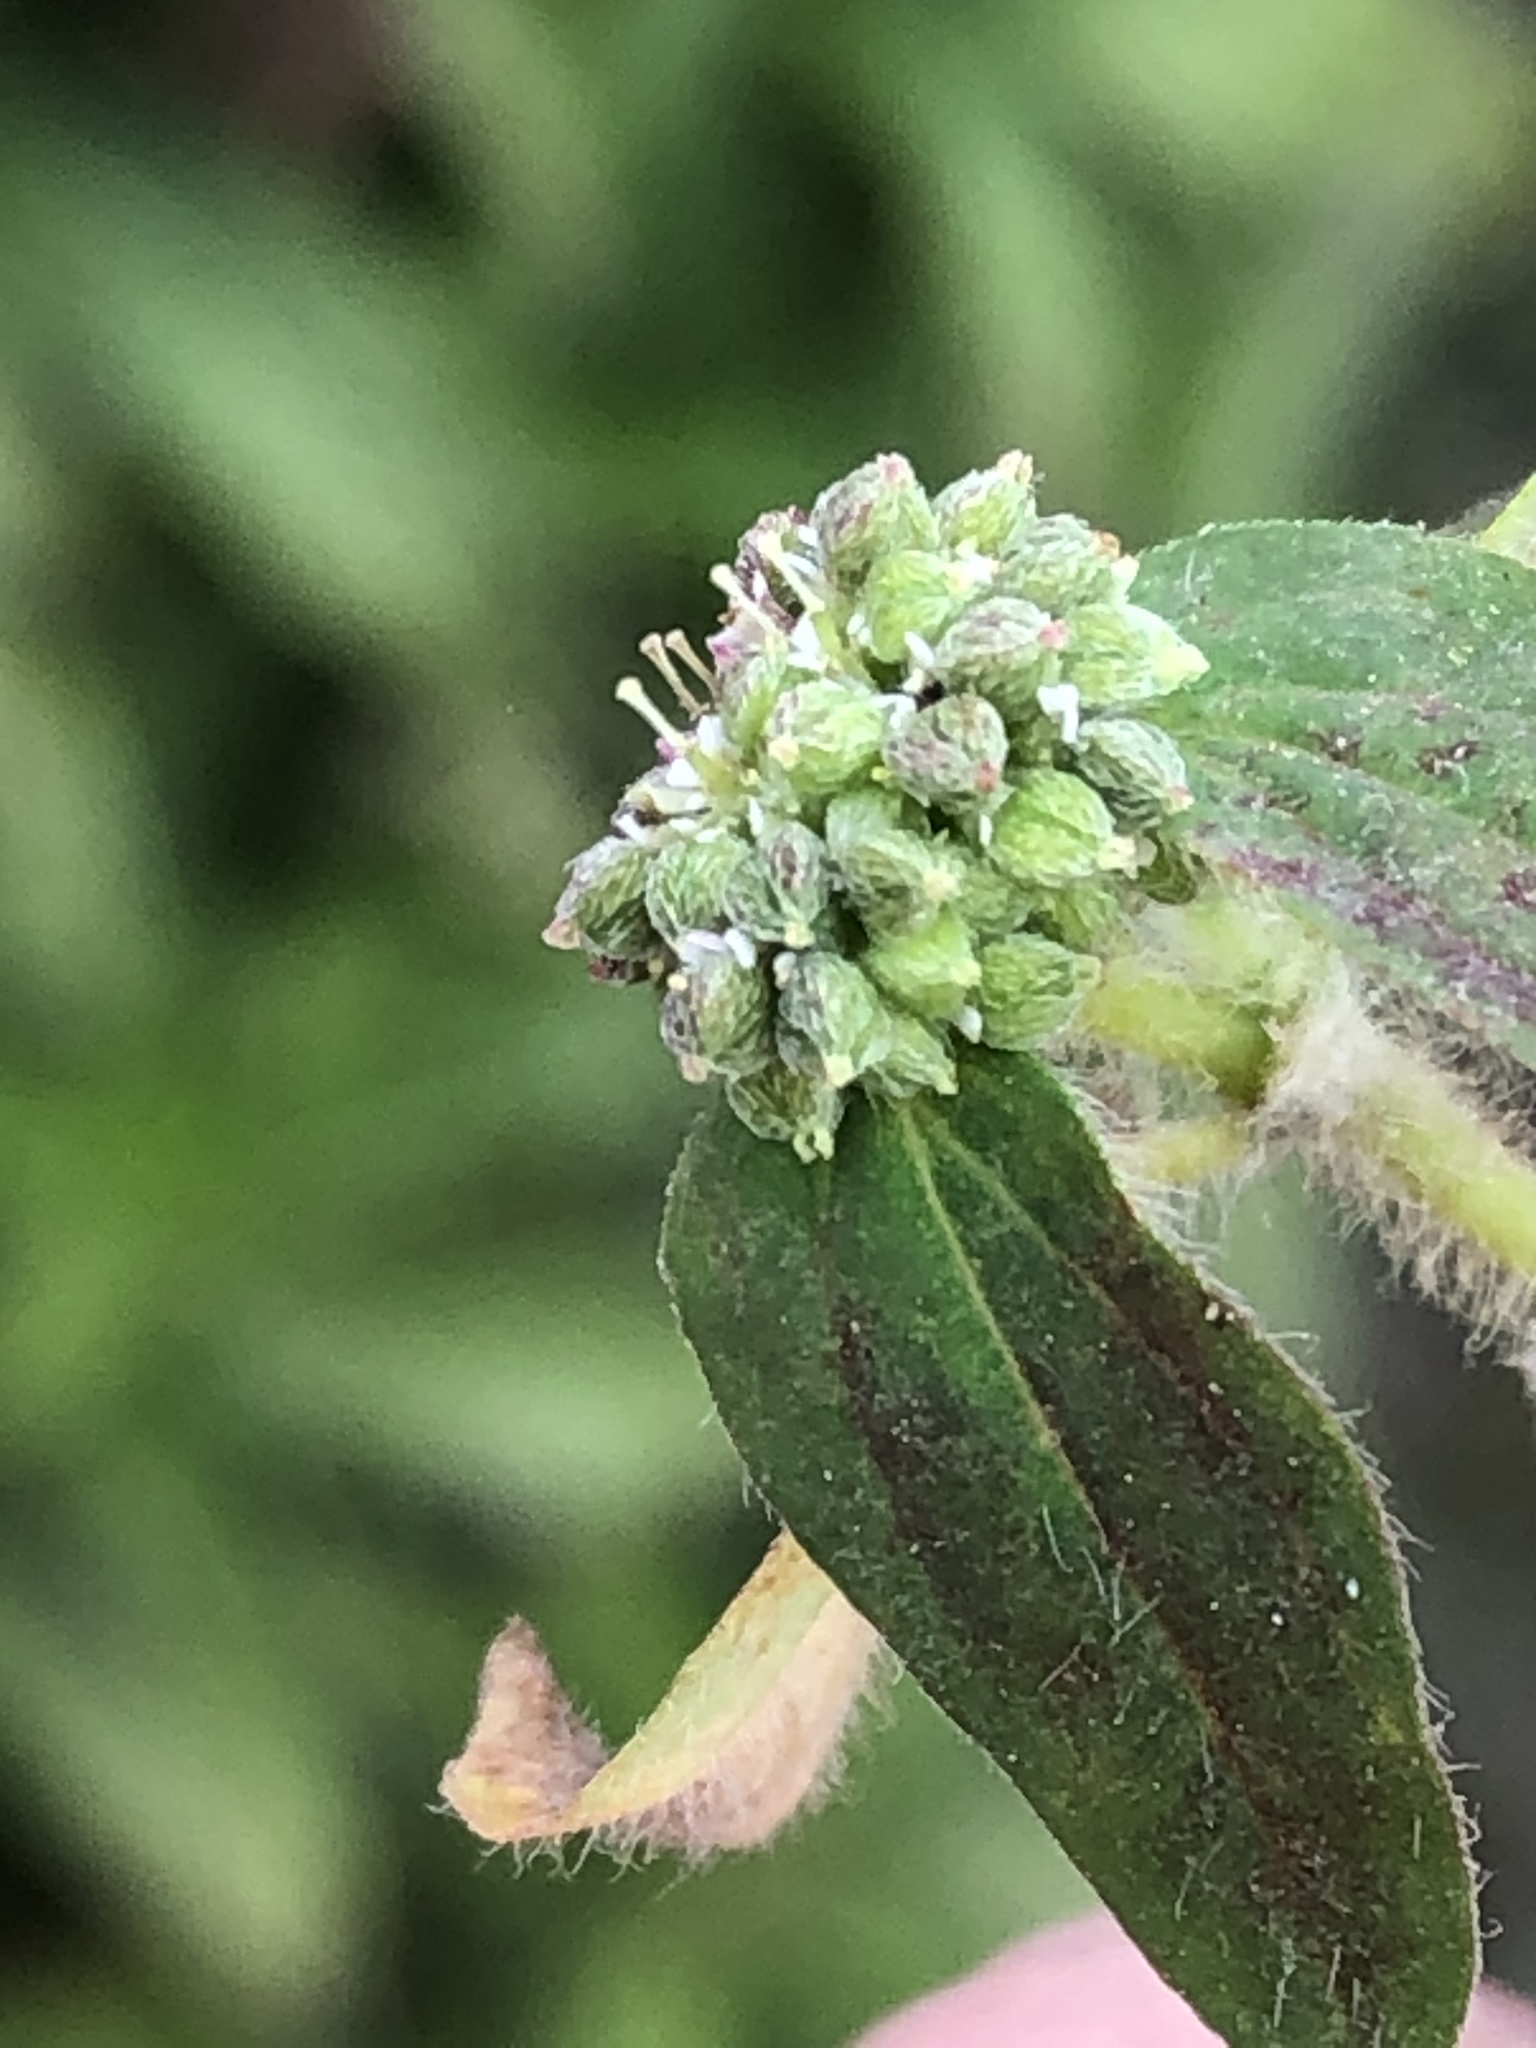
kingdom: Plantae
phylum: Tracheophyta
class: Magnoliopsida
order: Malpighiales
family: Euphorbiaceae
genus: Euphorbia
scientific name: Euphorbia ophthalmica
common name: Florida hammock sandmat
